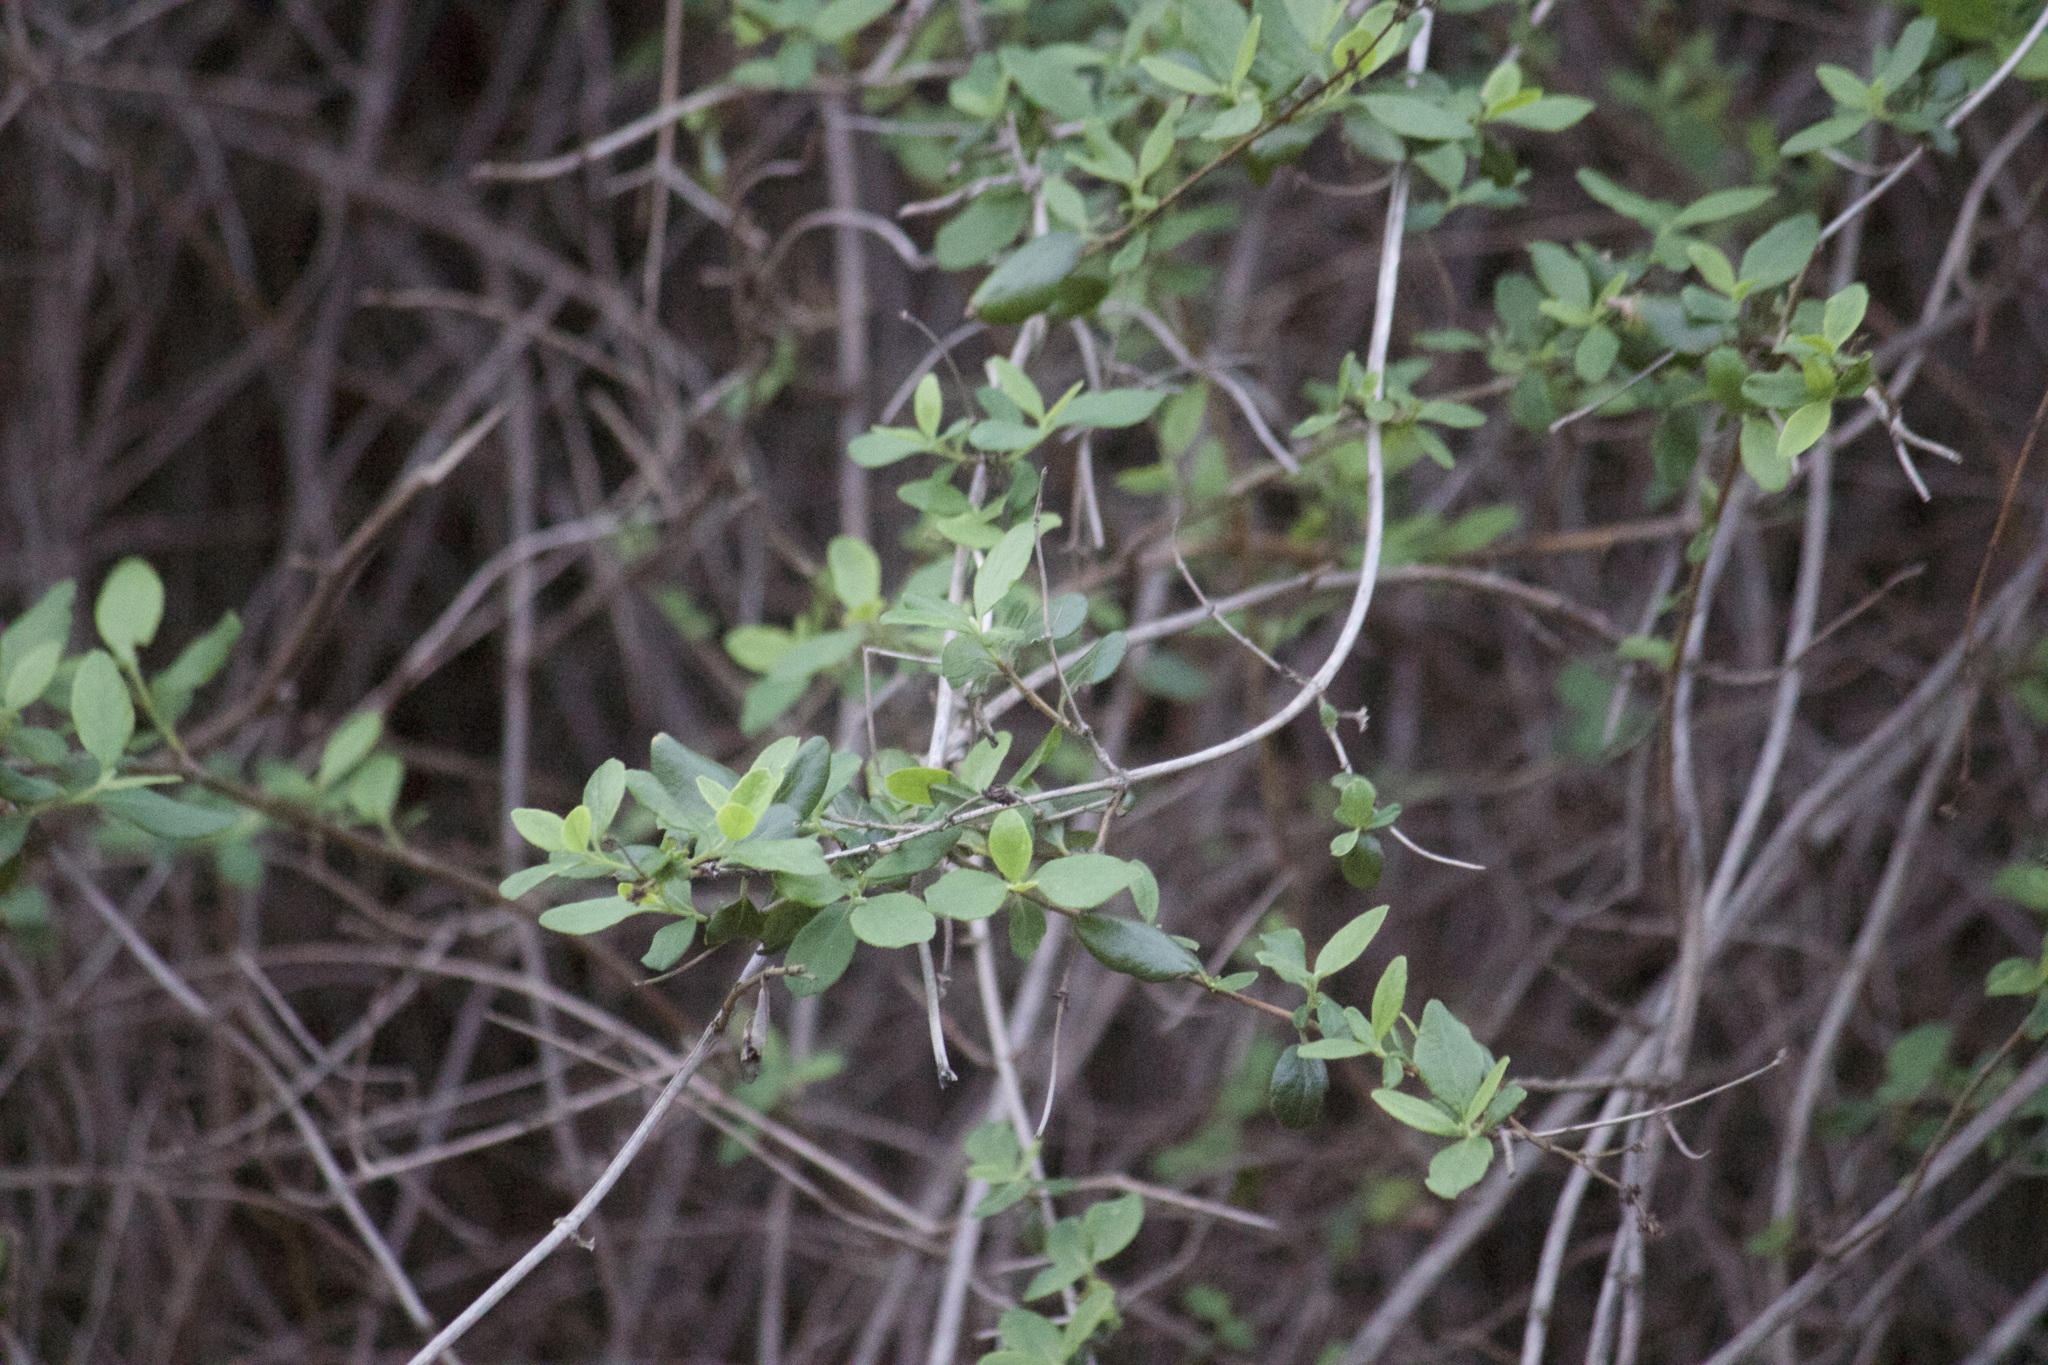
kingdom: Plantae
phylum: Tracheophyta
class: Magnoliopsida
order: Dipsacales
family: Caprifoliaceae
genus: Lonicera
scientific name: Lonicera subspicata
